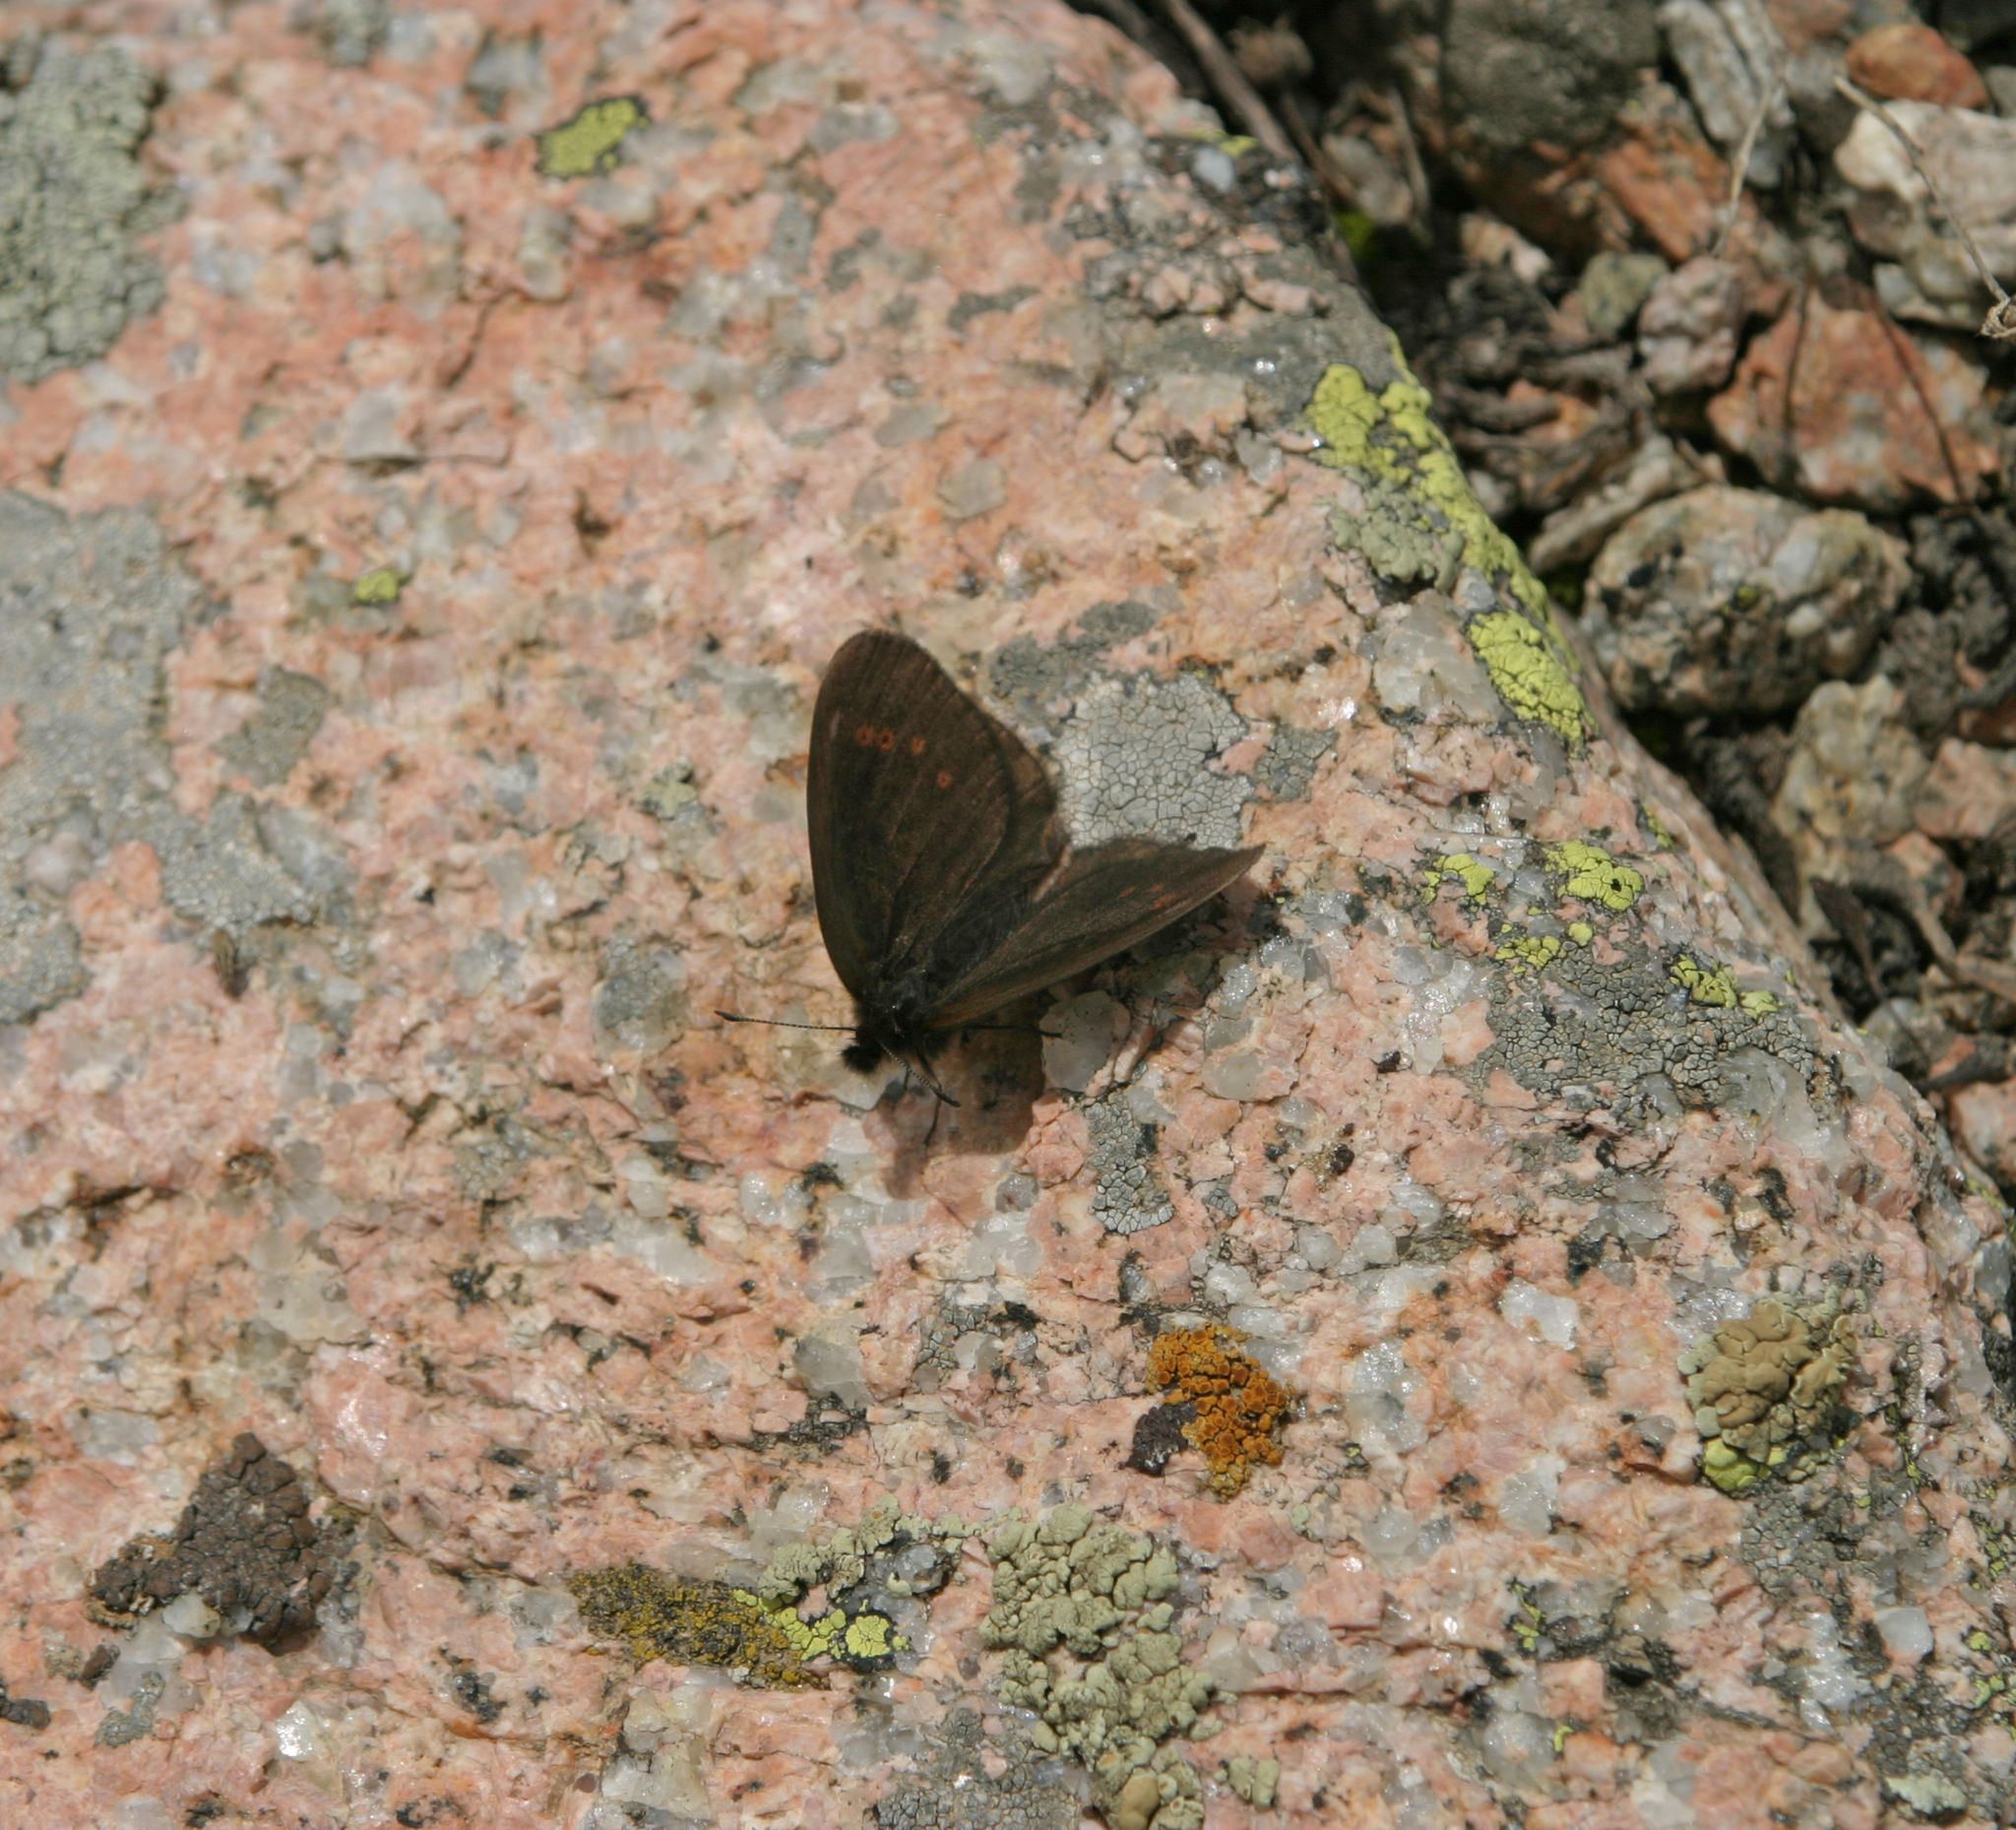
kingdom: Animalia
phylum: Arthropoda
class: Insecta
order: Lepidoptera
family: Nymphalidae
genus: Erebia
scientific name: Erebia meta
